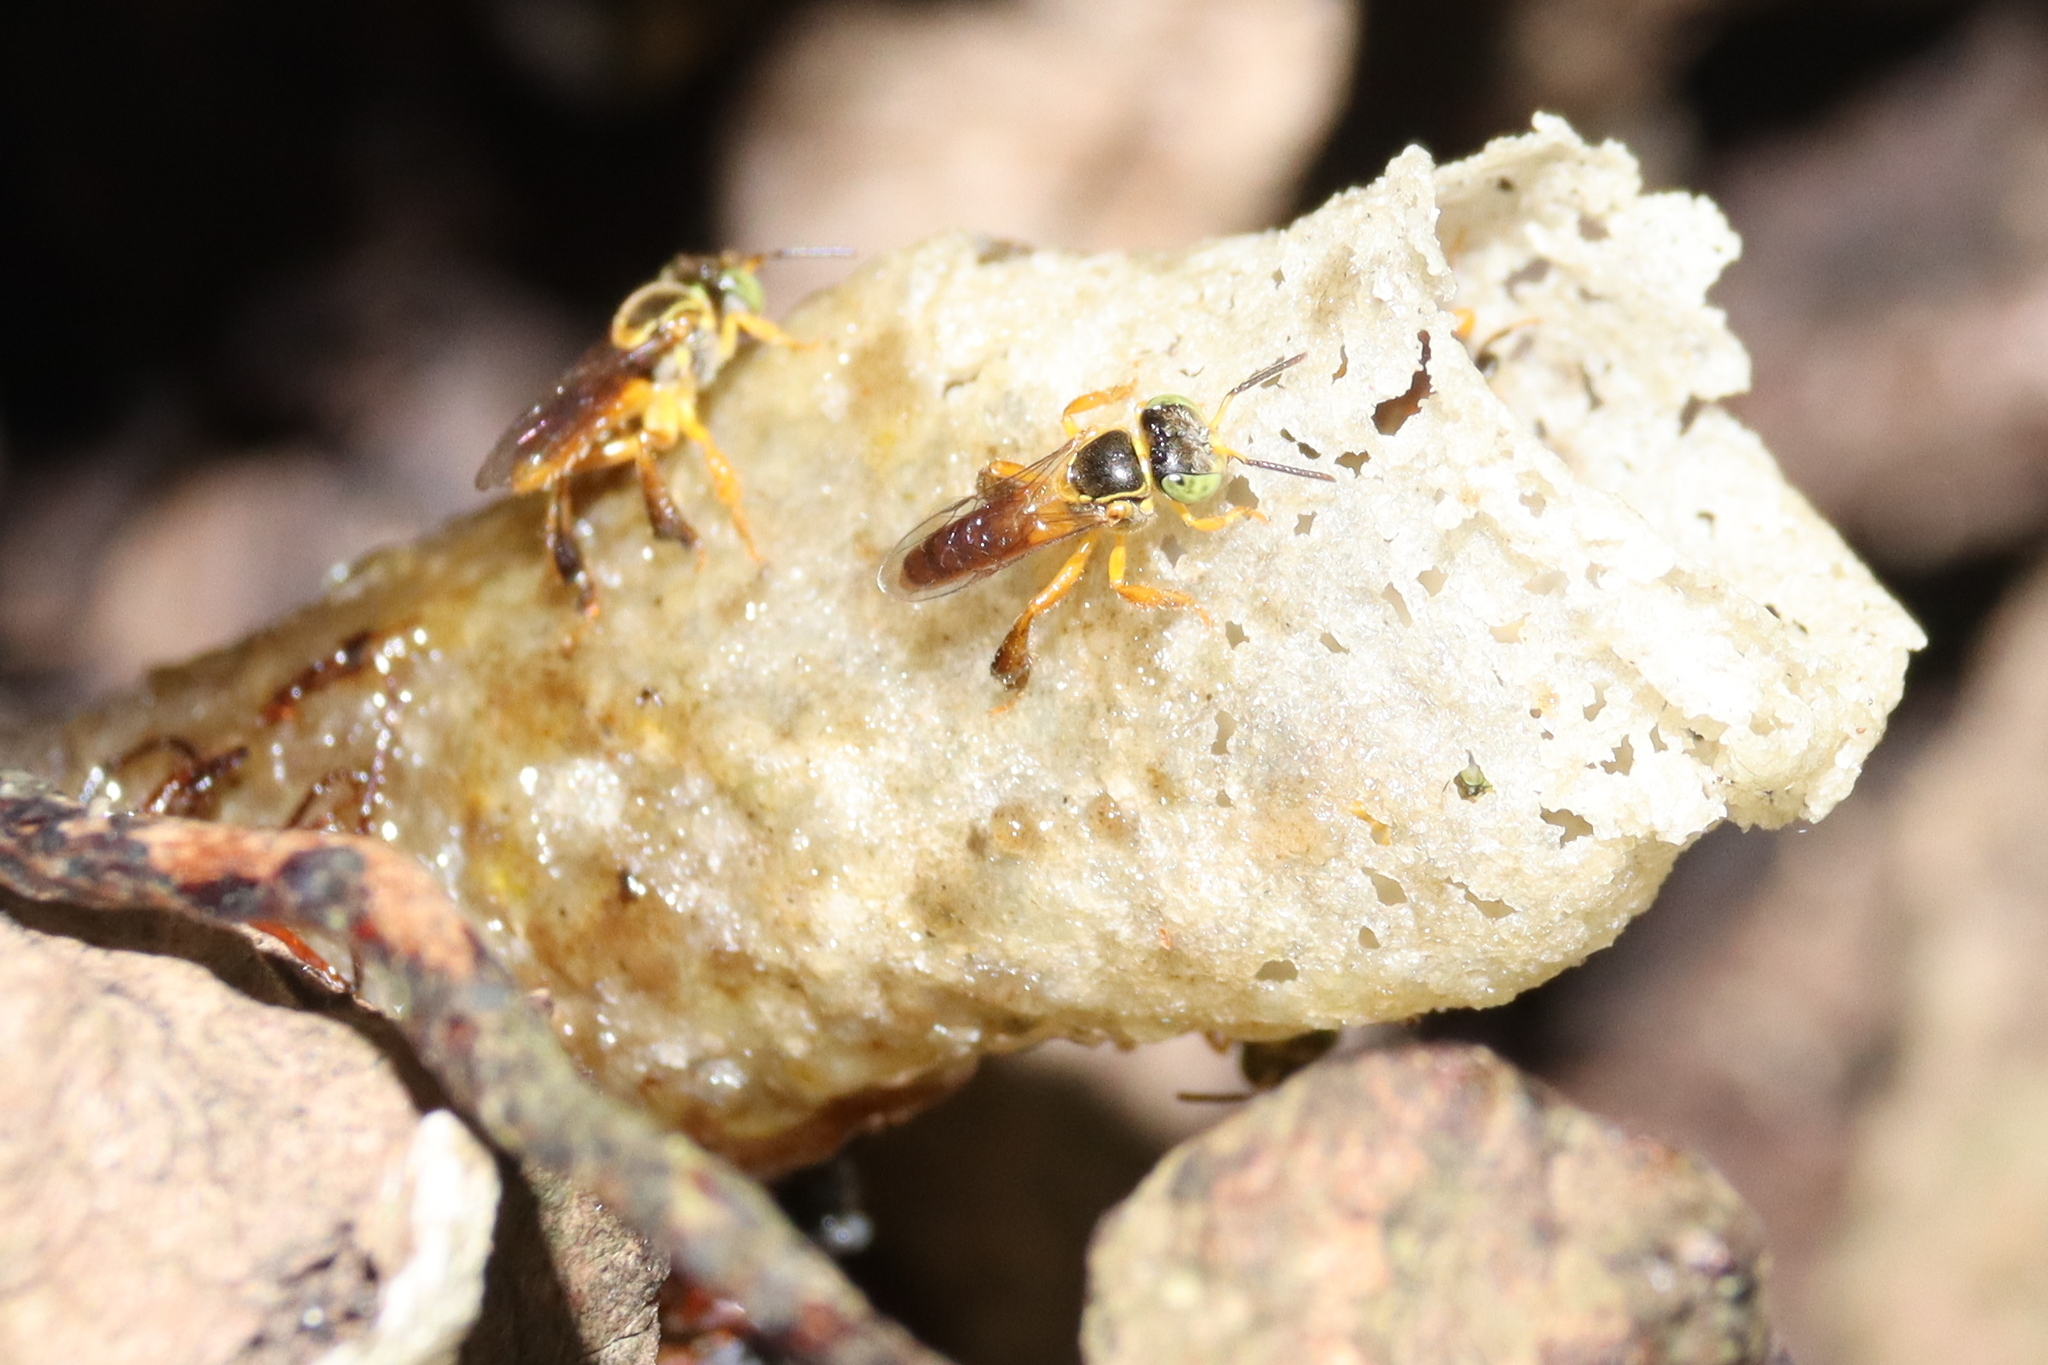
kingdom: Animalia
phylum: Arthropoda
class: Insecta
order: Hymenoptera
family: Apidae
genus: Tetragonisca
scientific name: Tetragonisca angustula
